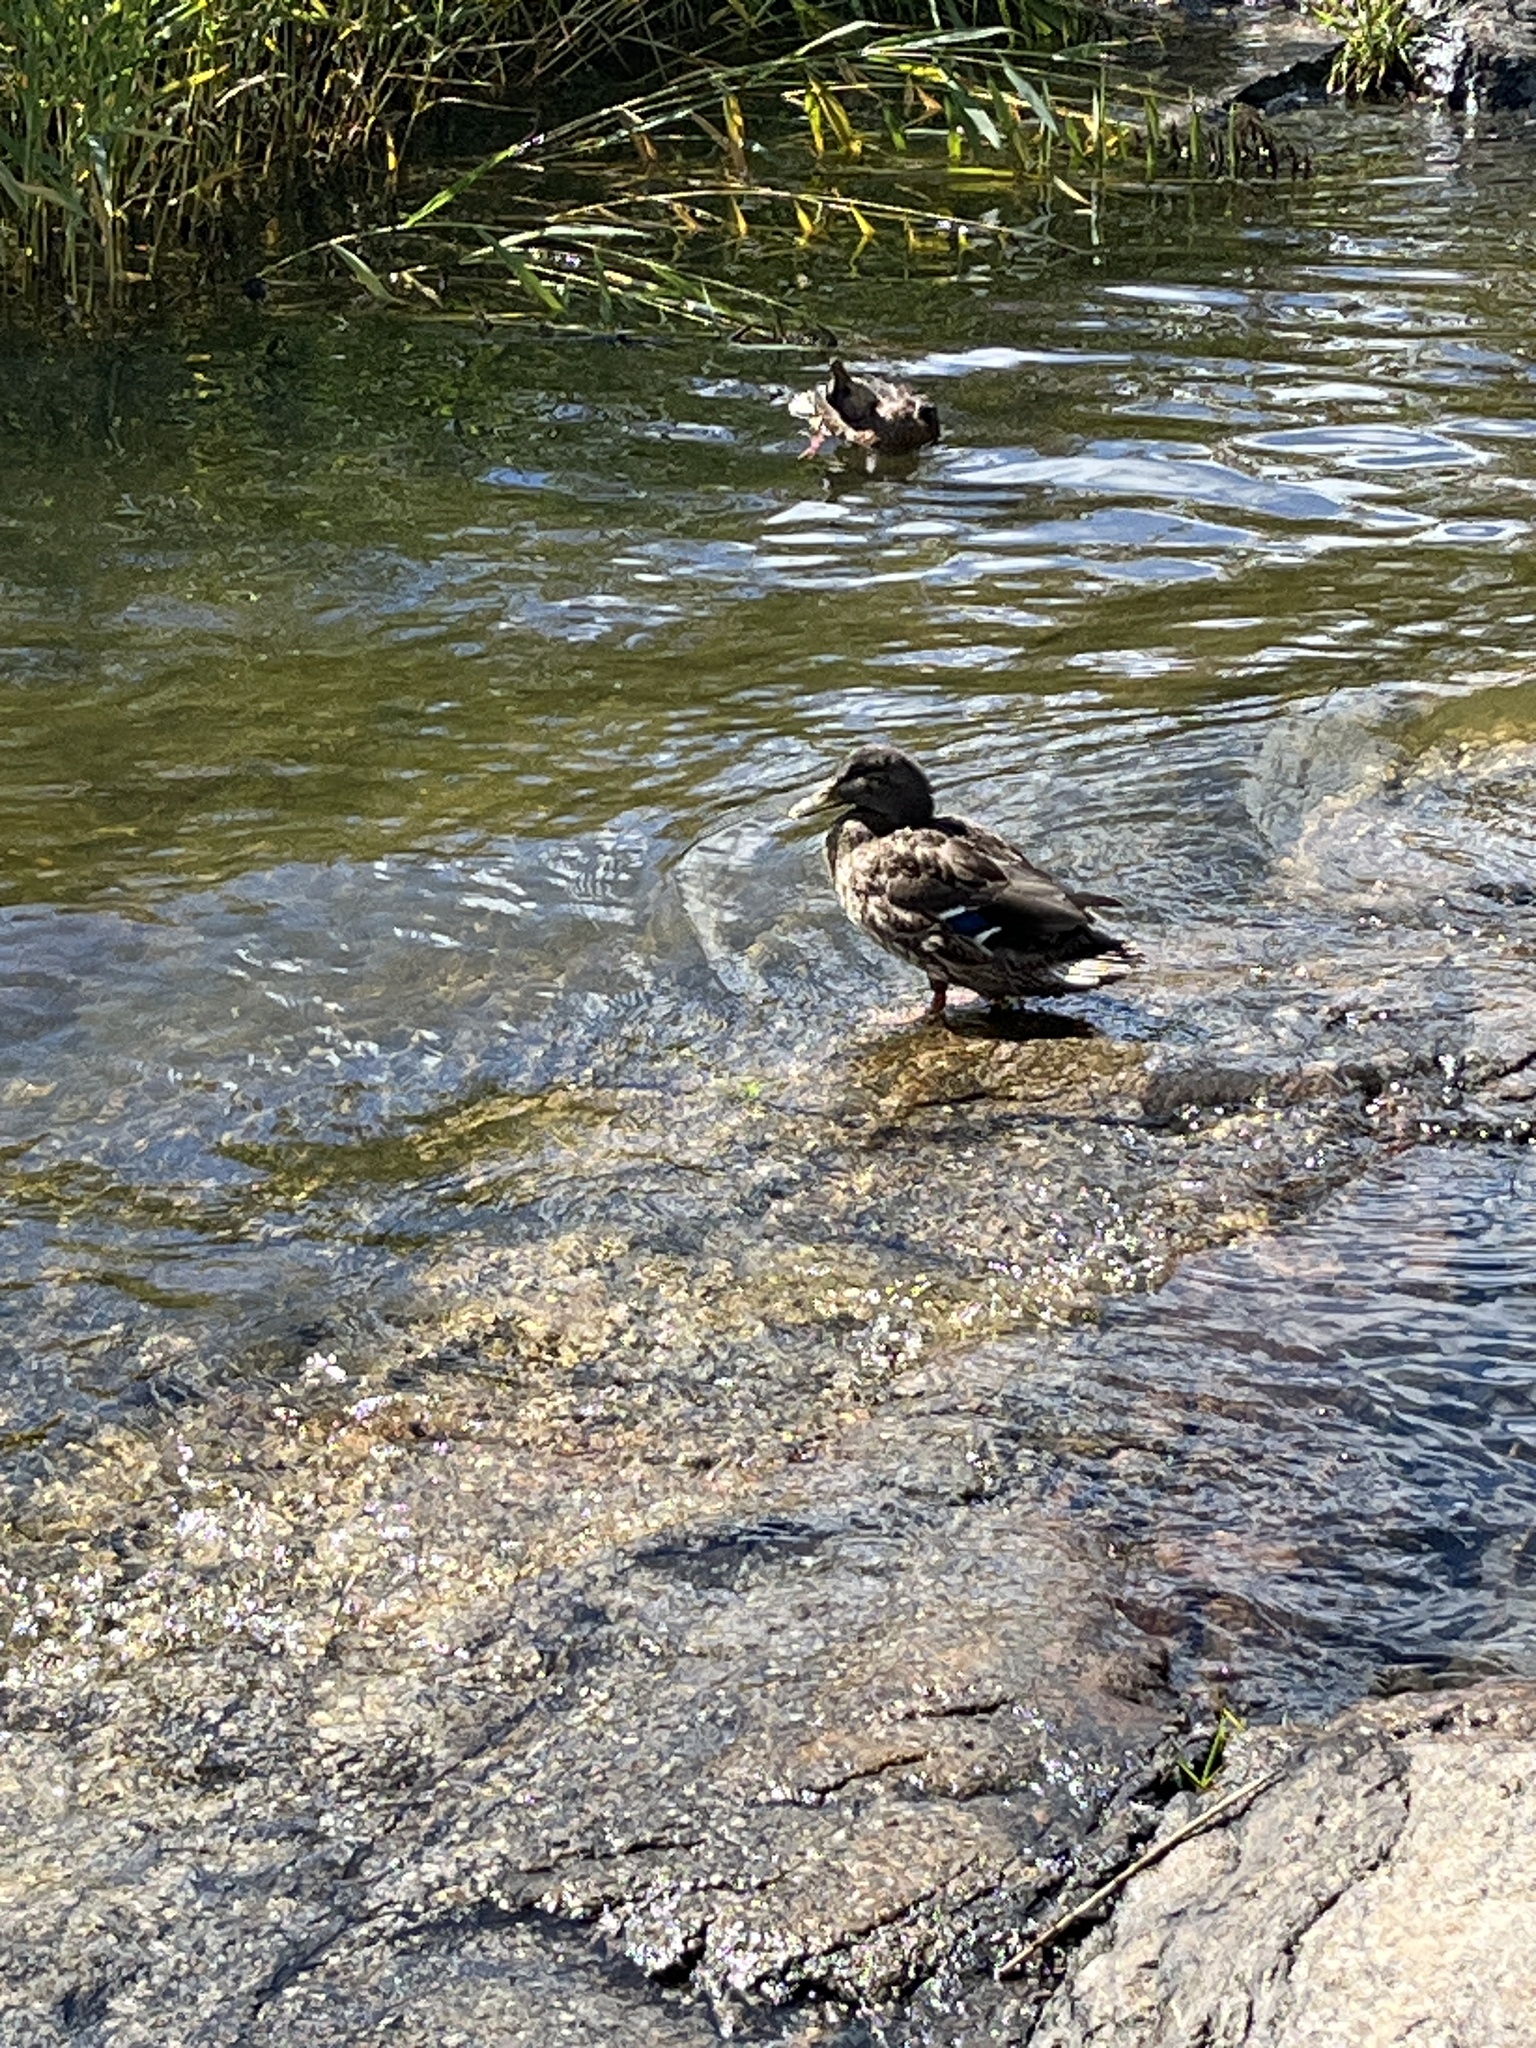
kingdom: Animalia
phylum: Chordata
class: Aves
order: Anseriformes
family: Anatidae
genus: Anas
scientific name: Anas platyrhynchos
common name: Mallard
